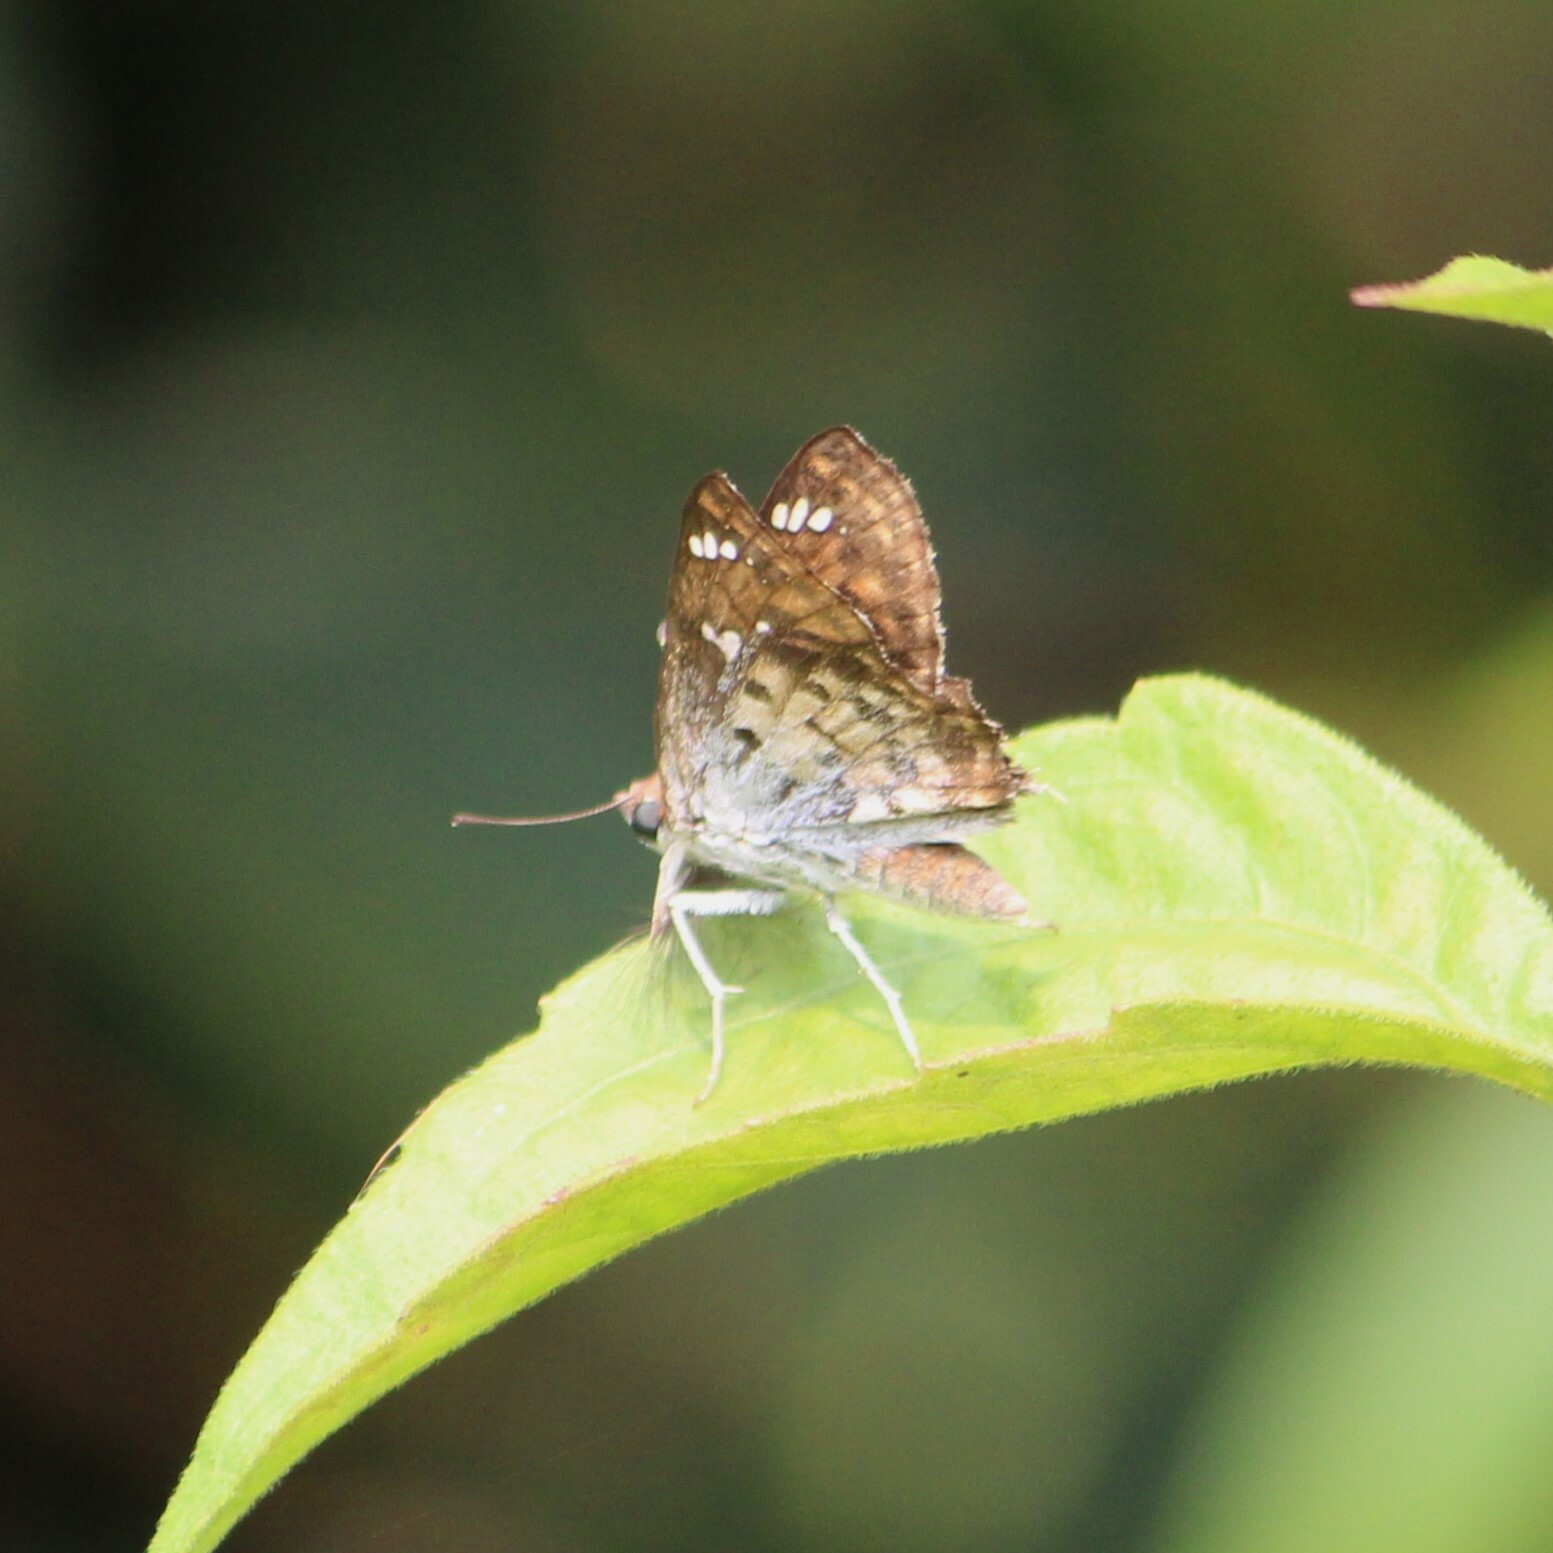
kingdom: Animalia
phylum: Arthropoda
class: Insecta
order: Lepidoptera
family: Hesperiidae
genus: Caprona
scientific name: Caprona ransonnettii
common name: Golden angle
